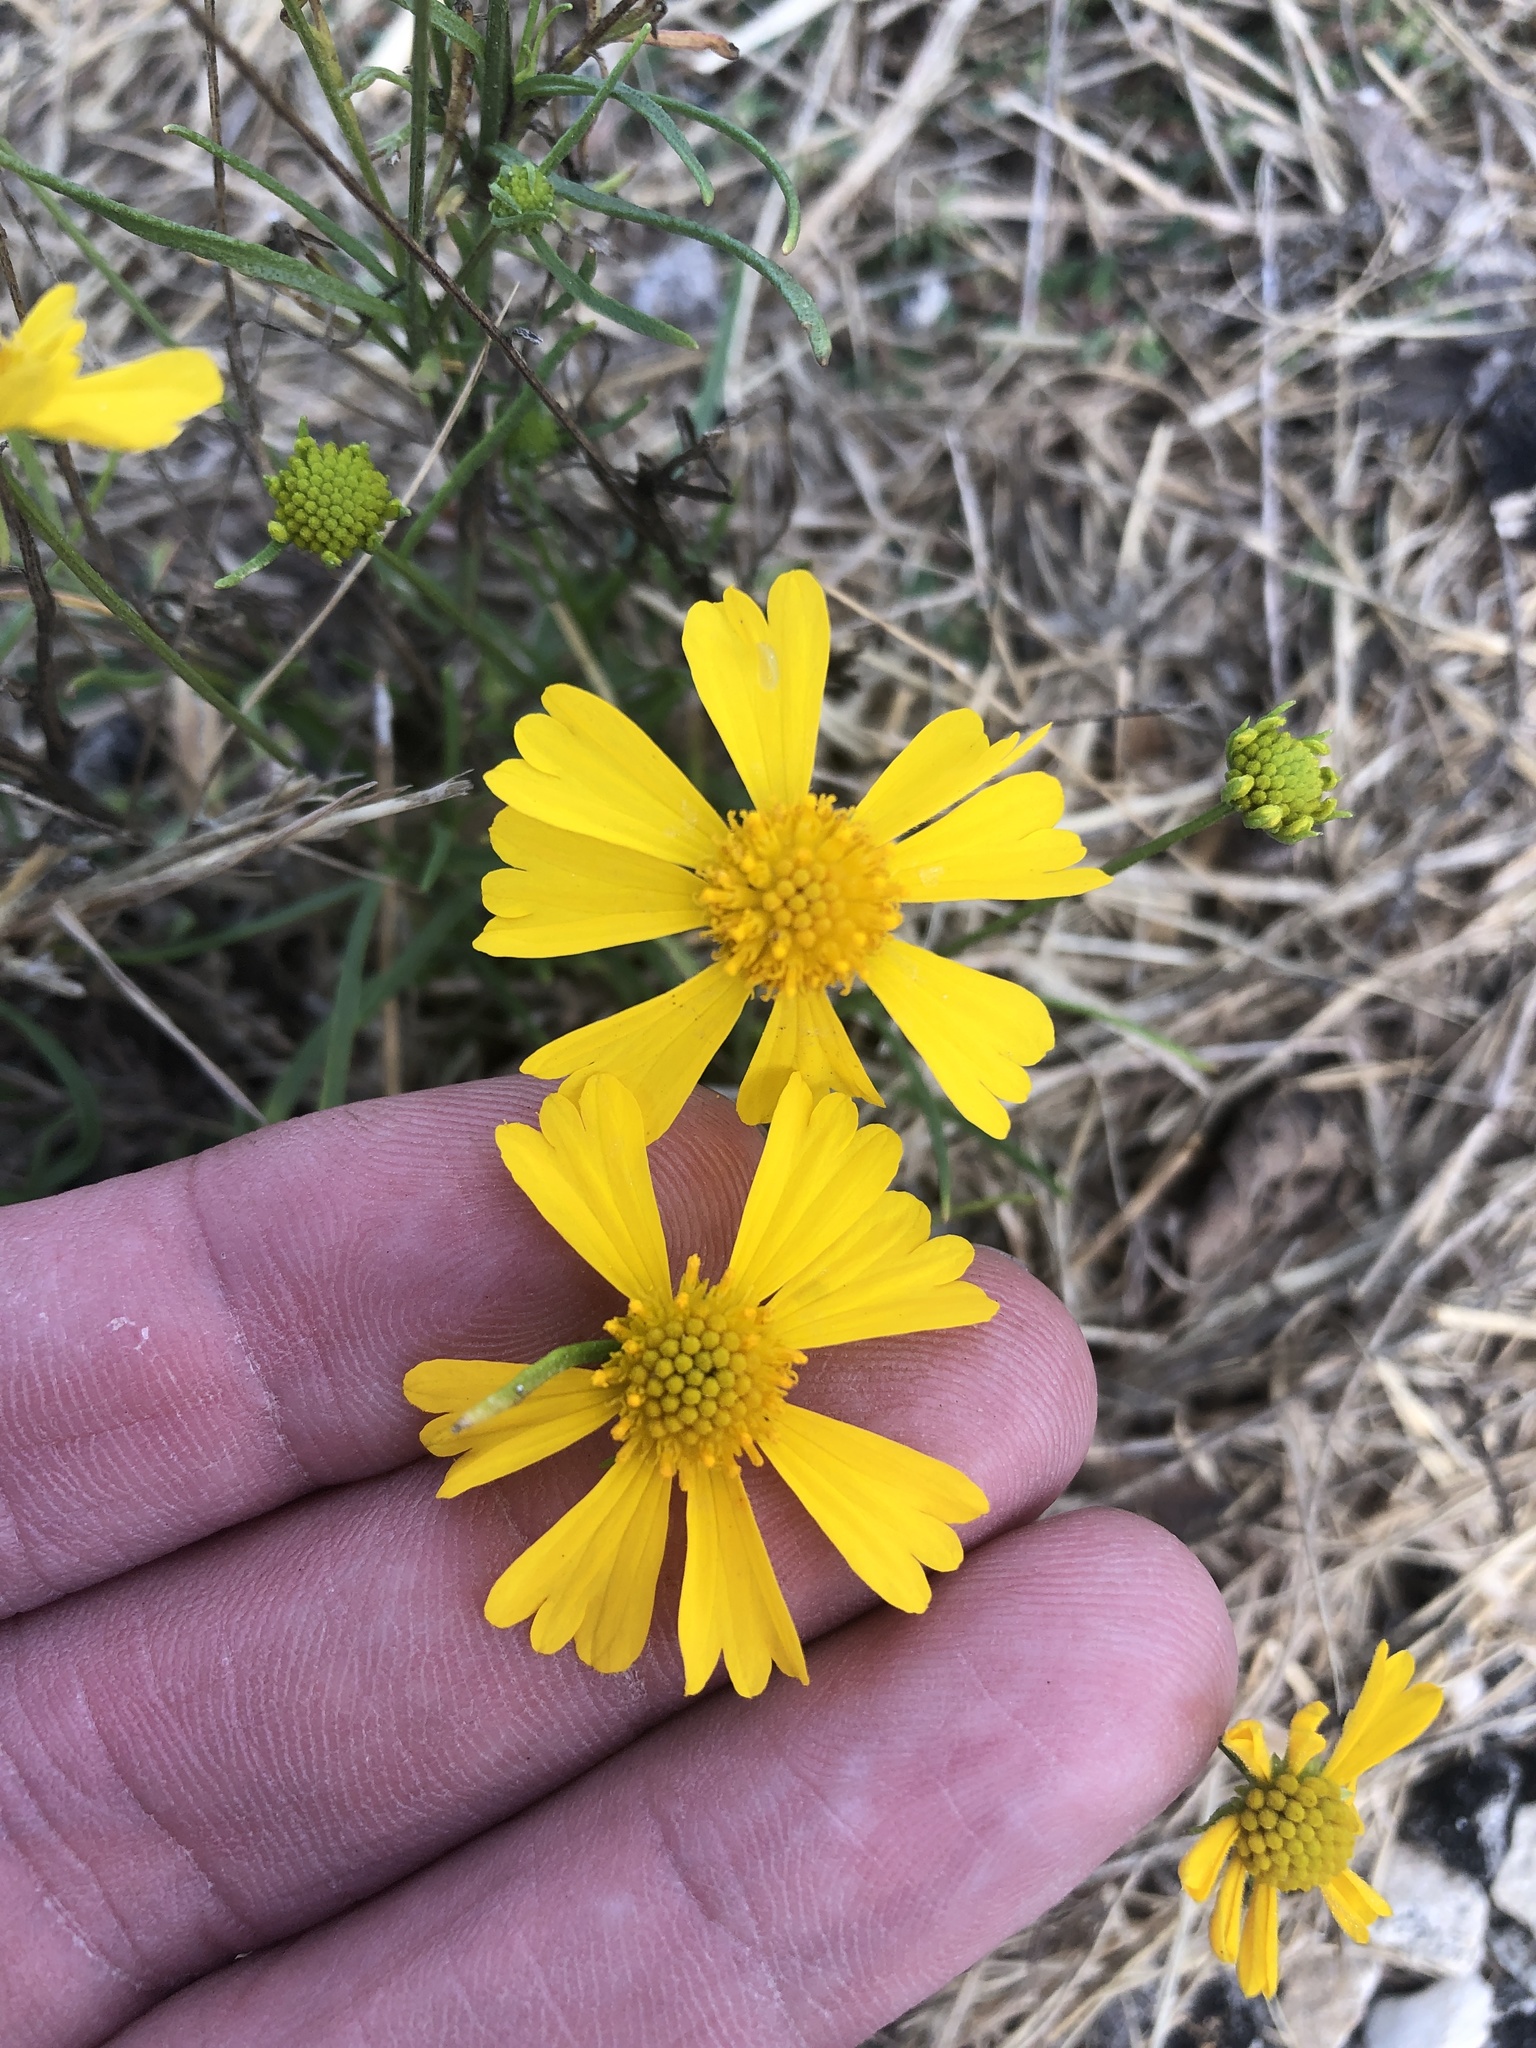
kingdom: Plantae
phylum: Tracheophyta
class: Magnoliopsida
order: Asterales
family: Asteraceae
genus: Helenium
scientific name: Helenium amarum
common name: Bitter sneezeweed
